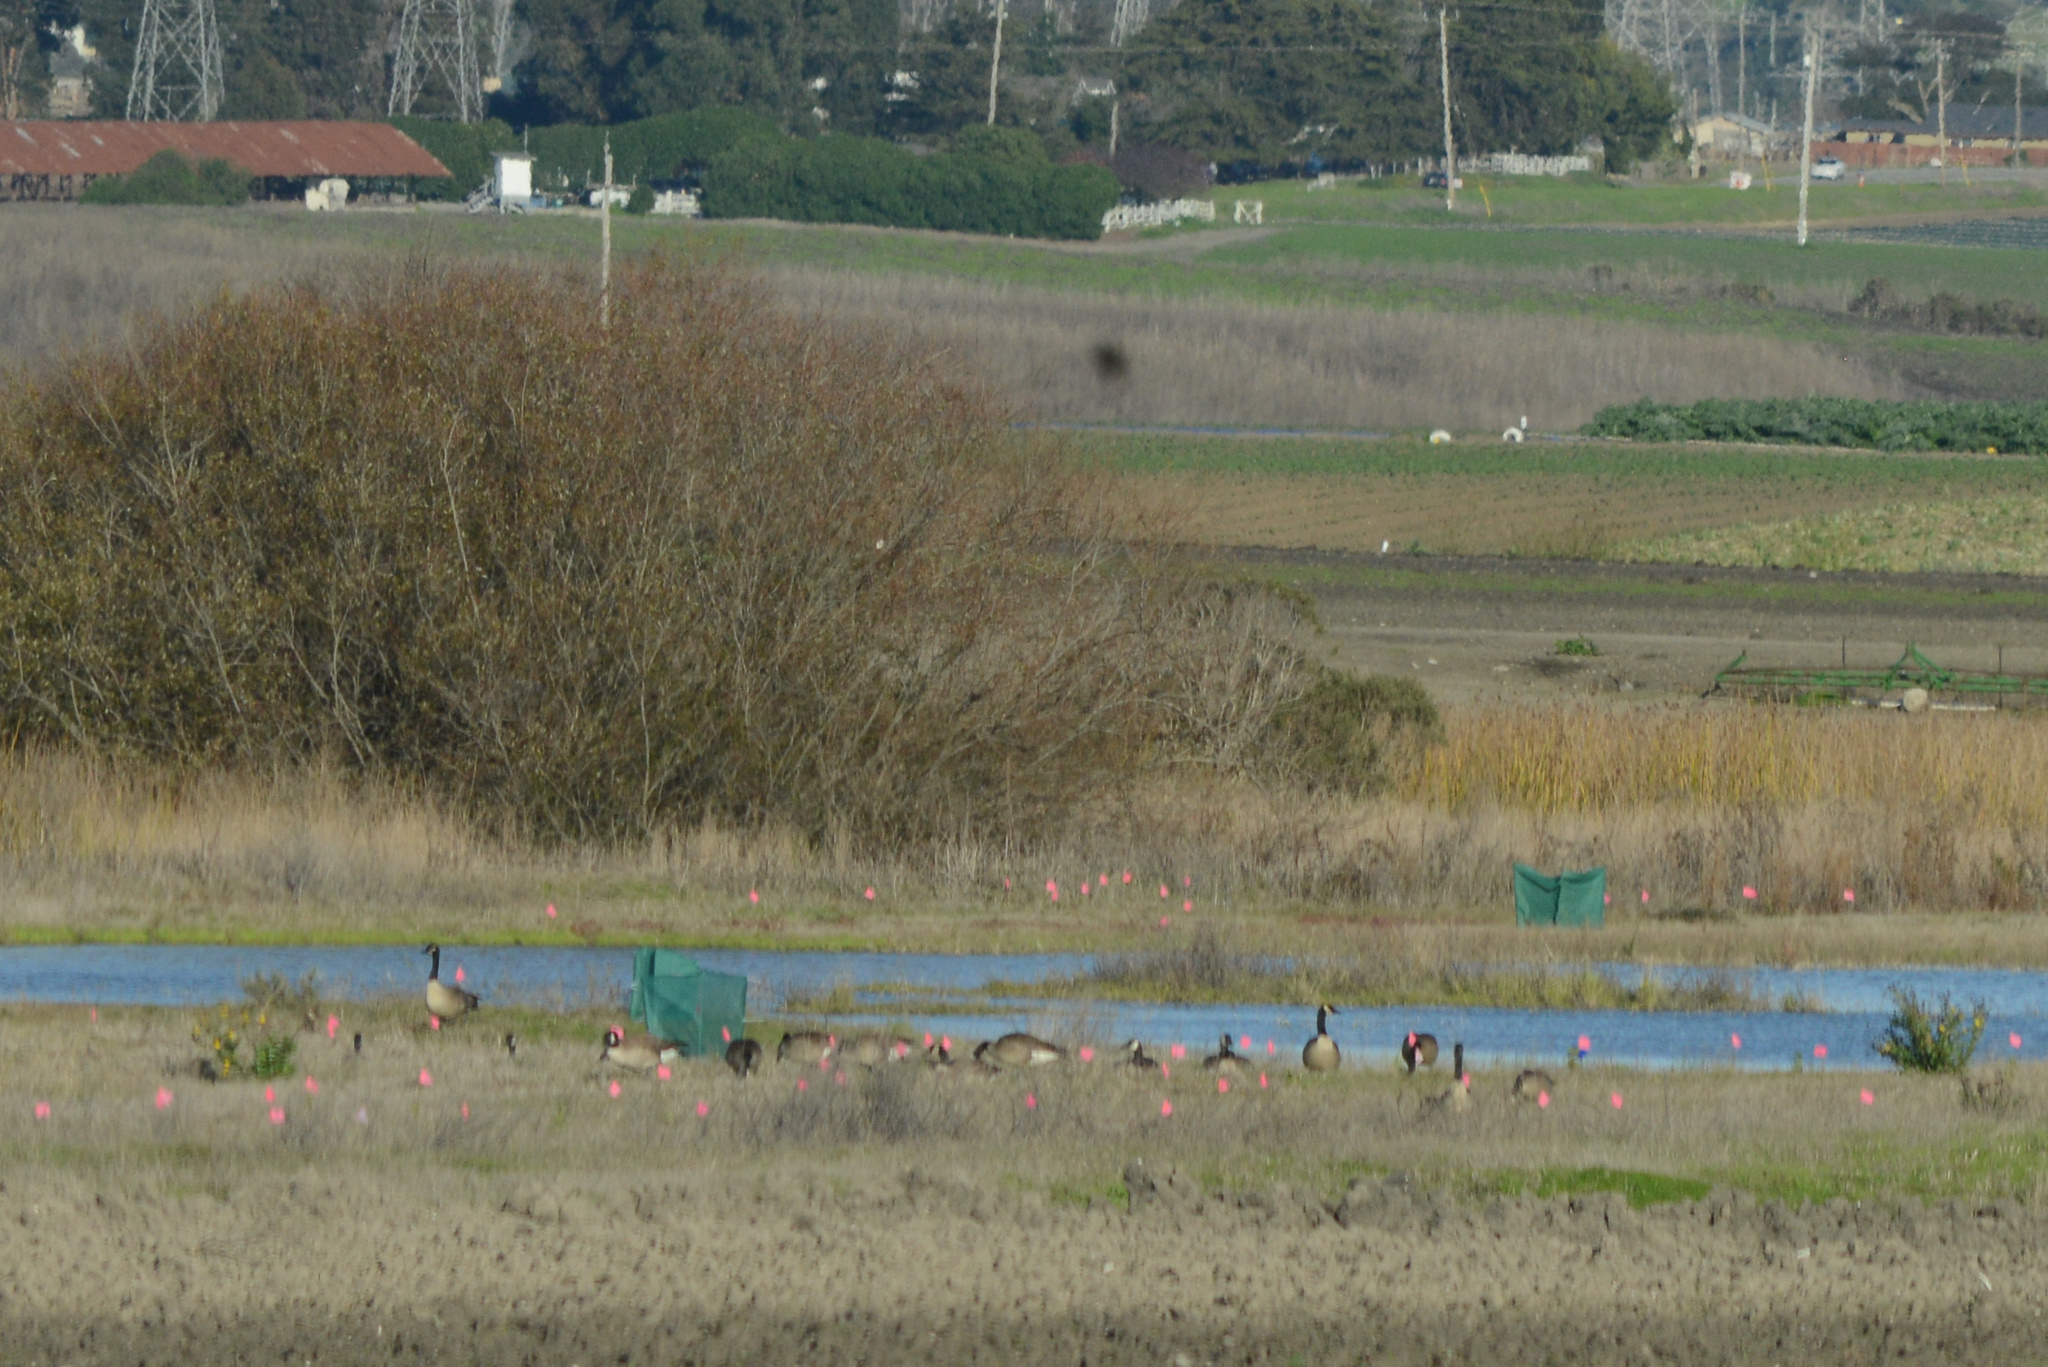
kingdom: Animalia
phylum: Chordata
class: Aves
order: Anseriformes
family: Anatidae
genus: Branta
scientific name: Branta canadensis
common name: Canada goose
